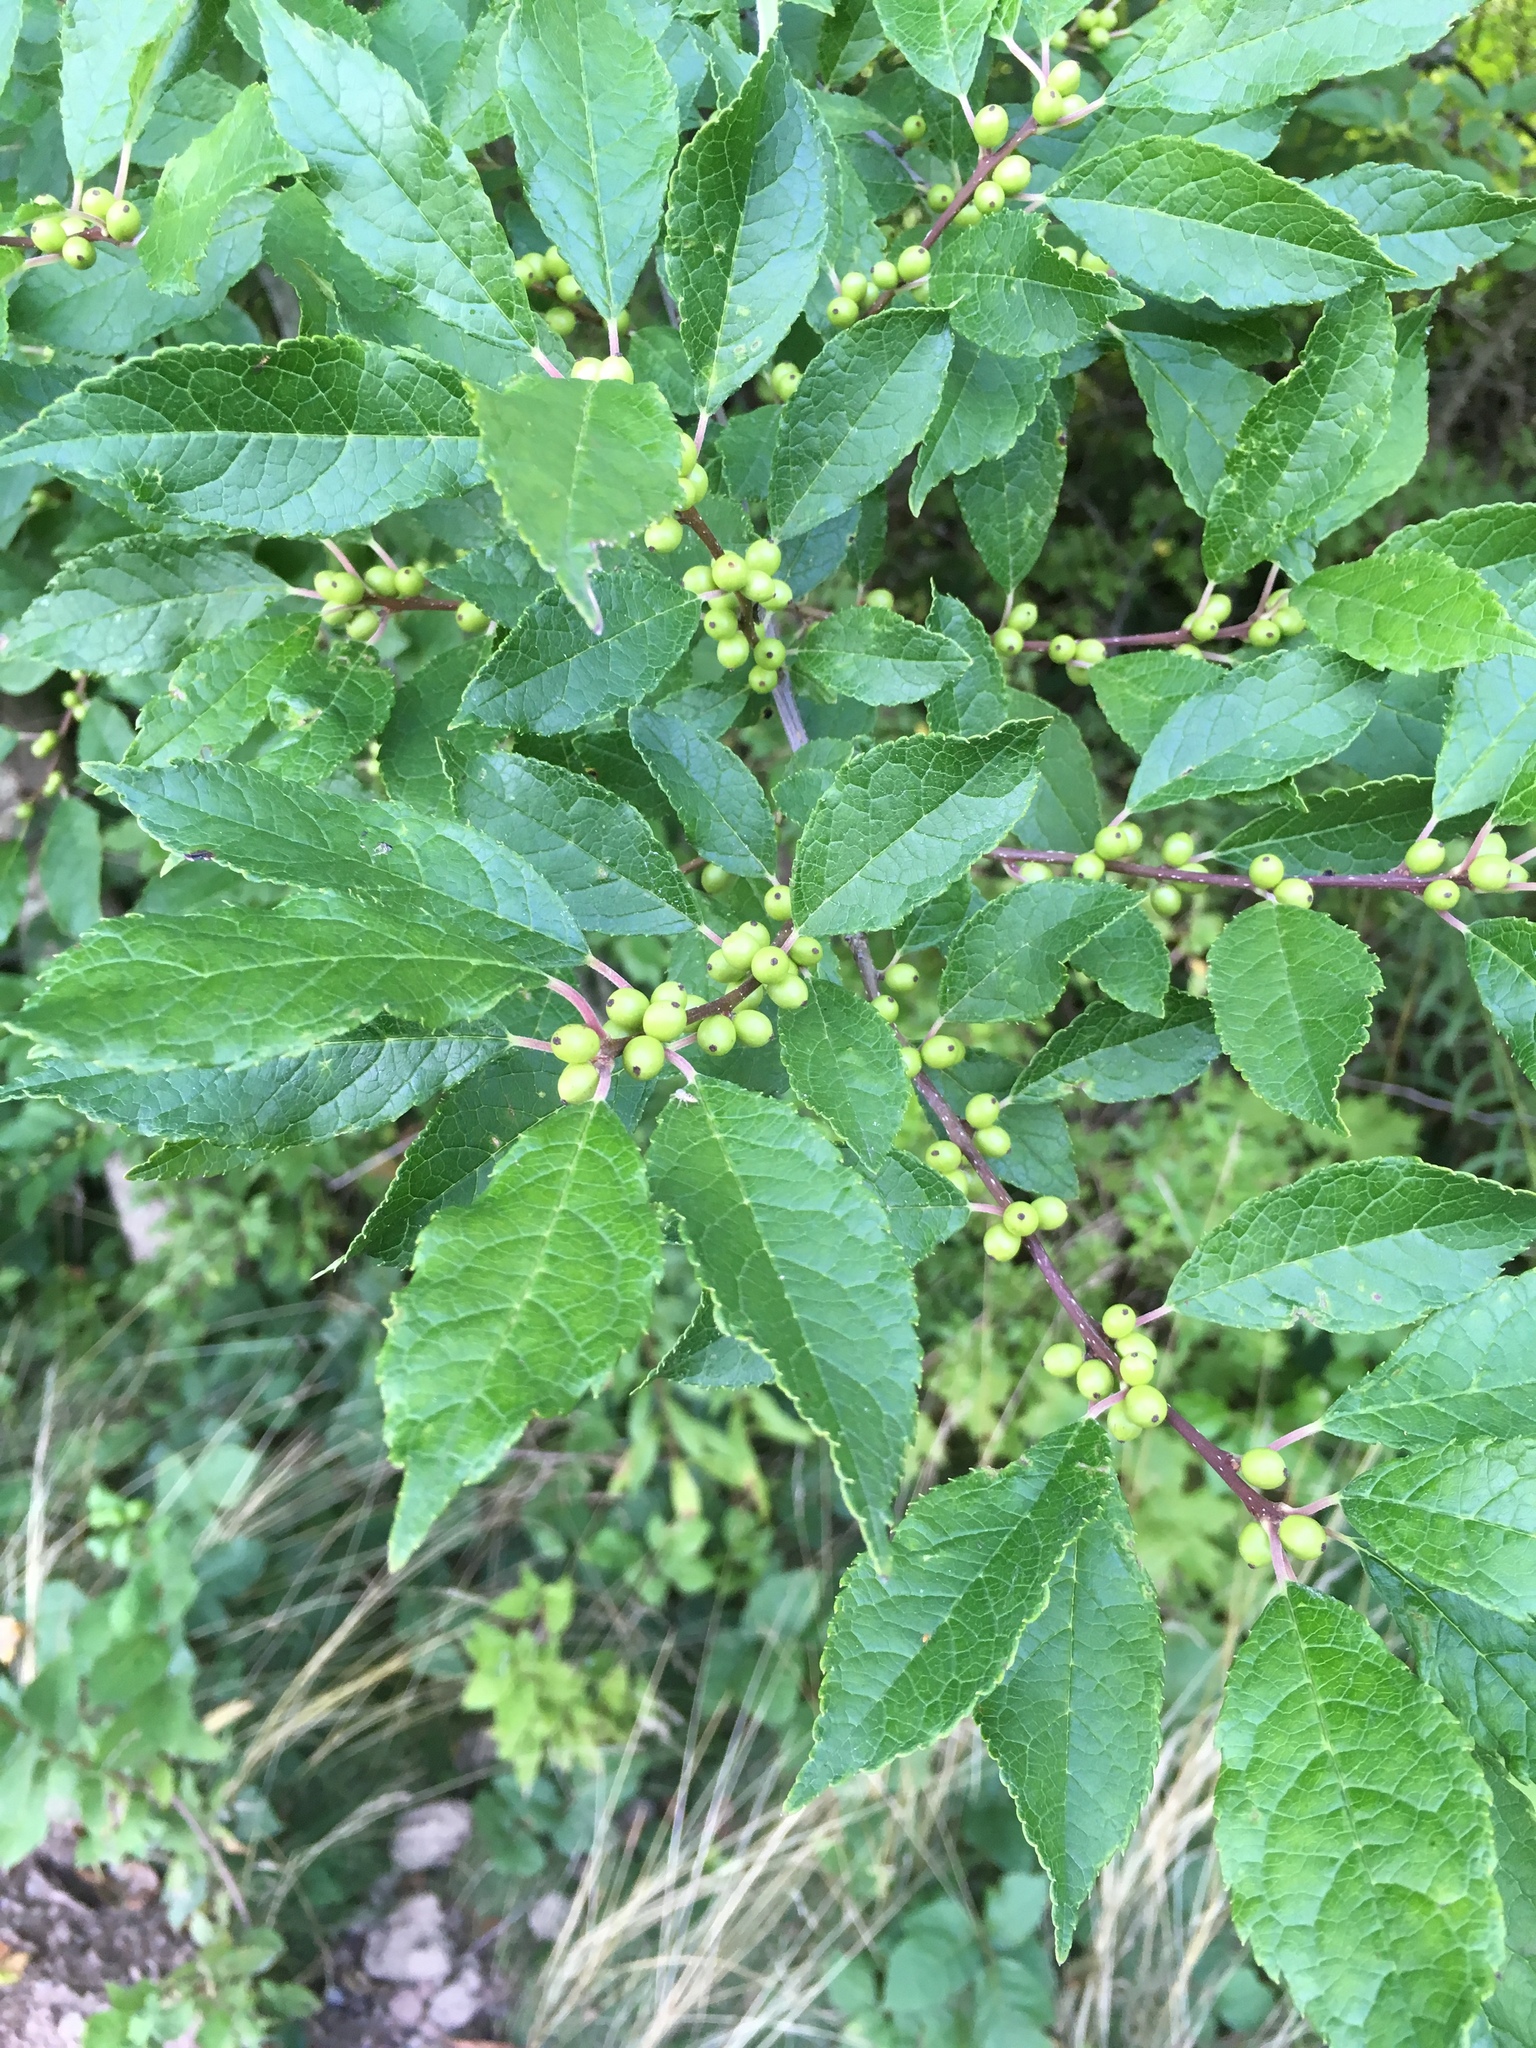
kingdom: Plantae
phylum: Tracheophyta
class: Magnoliopsida
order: Aquifoliales
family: Aquifoliaceae
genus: Ilex
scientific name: Ilex verticillata
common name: Virginia winterberry
